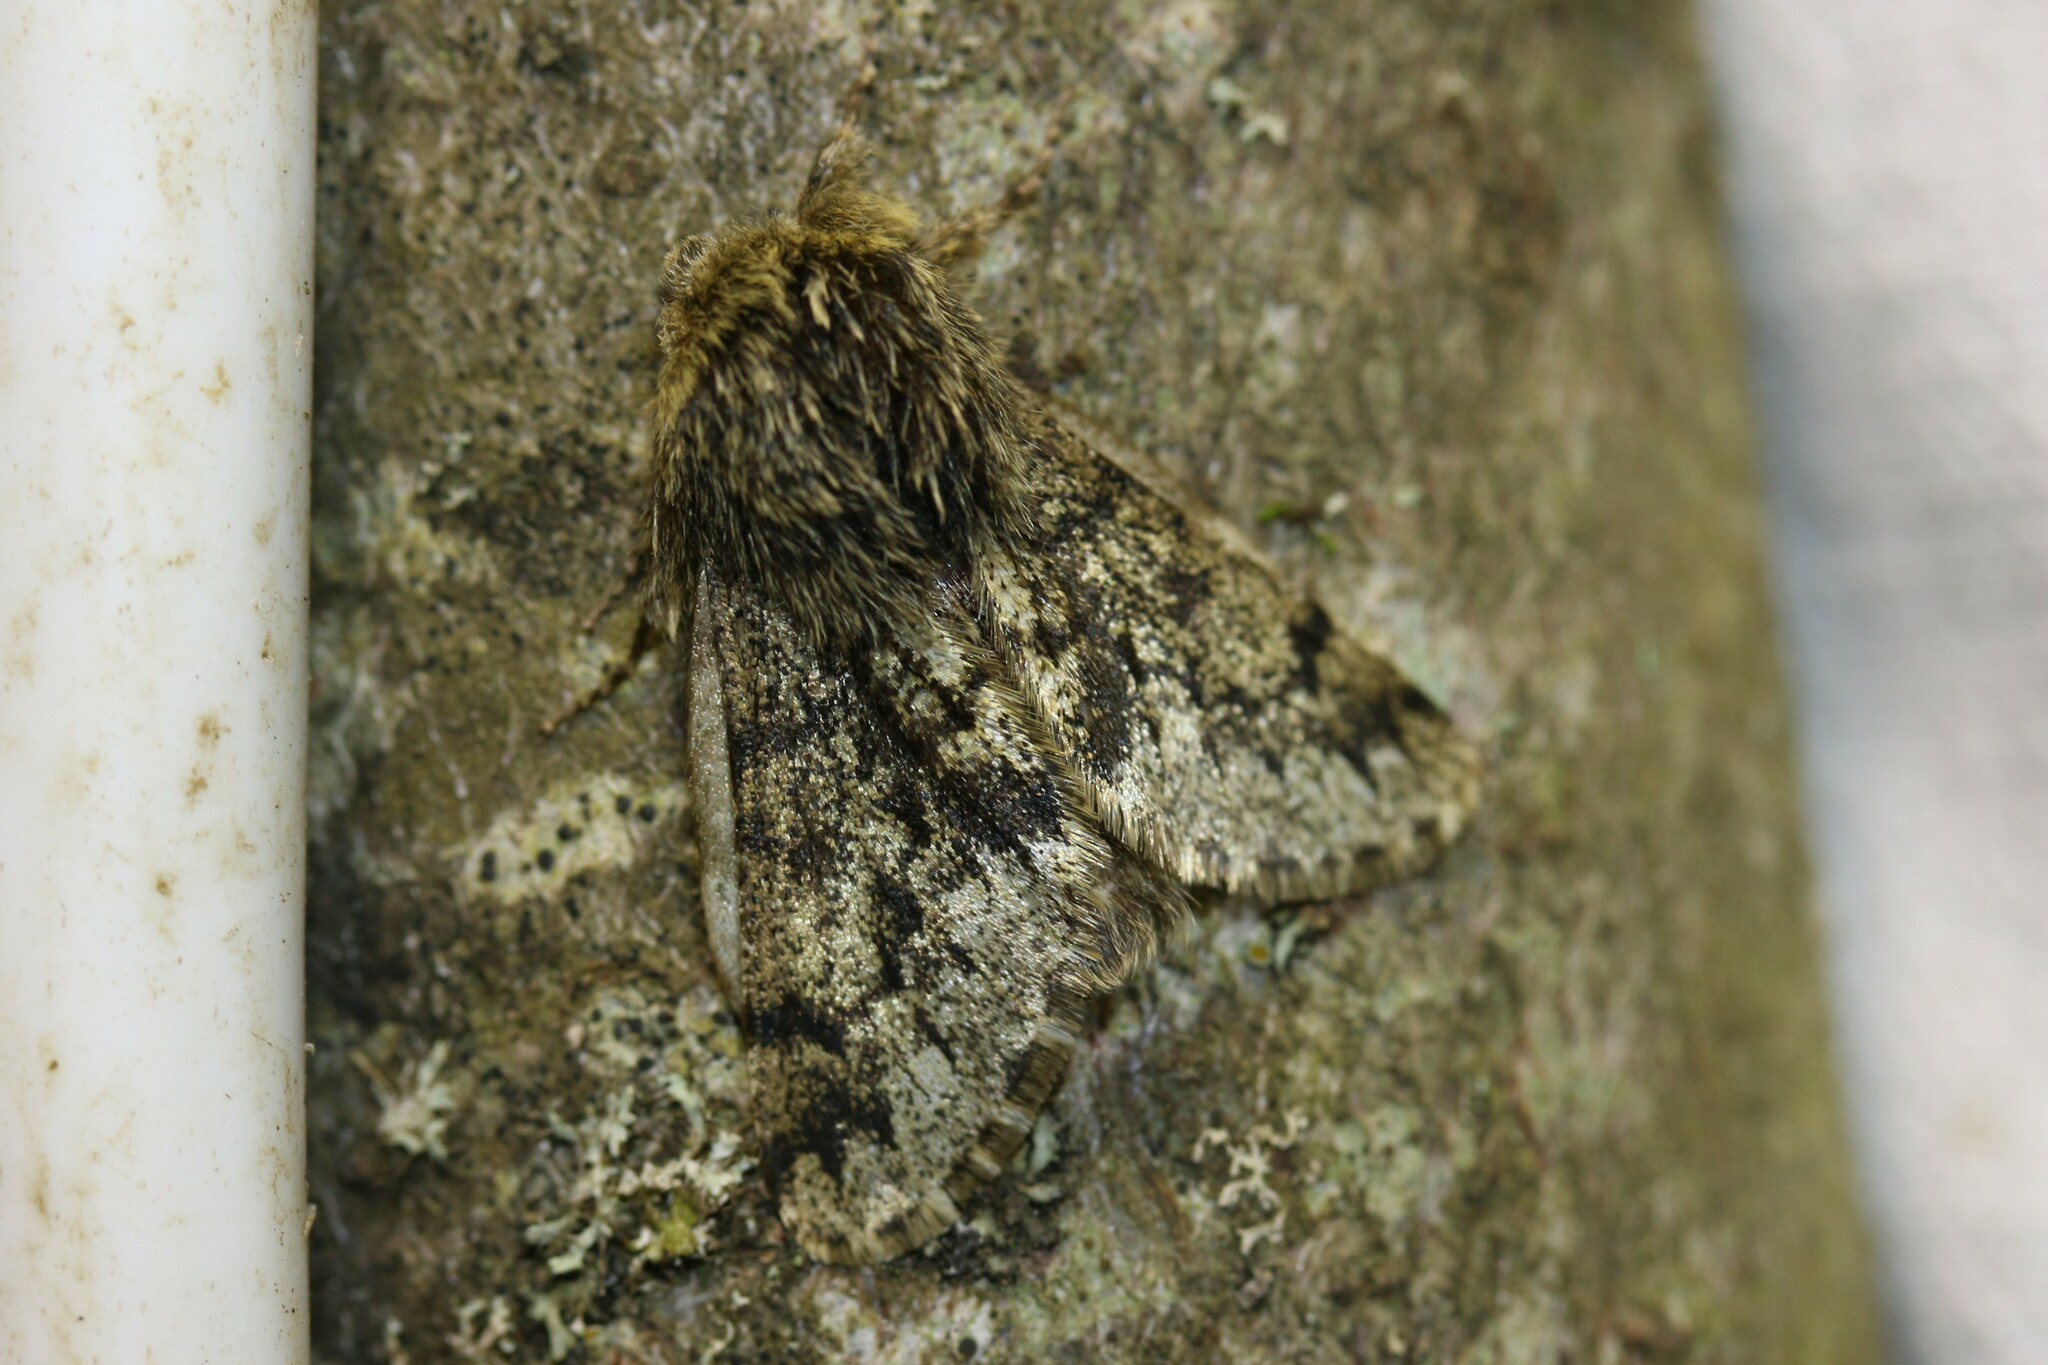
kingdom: Animalia
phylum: Arthropoda
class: Insecta
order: Lepidoptera
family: Geometridae
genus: Apocheima
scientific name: Apocheima hispidaria
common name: Small brindled beauty
